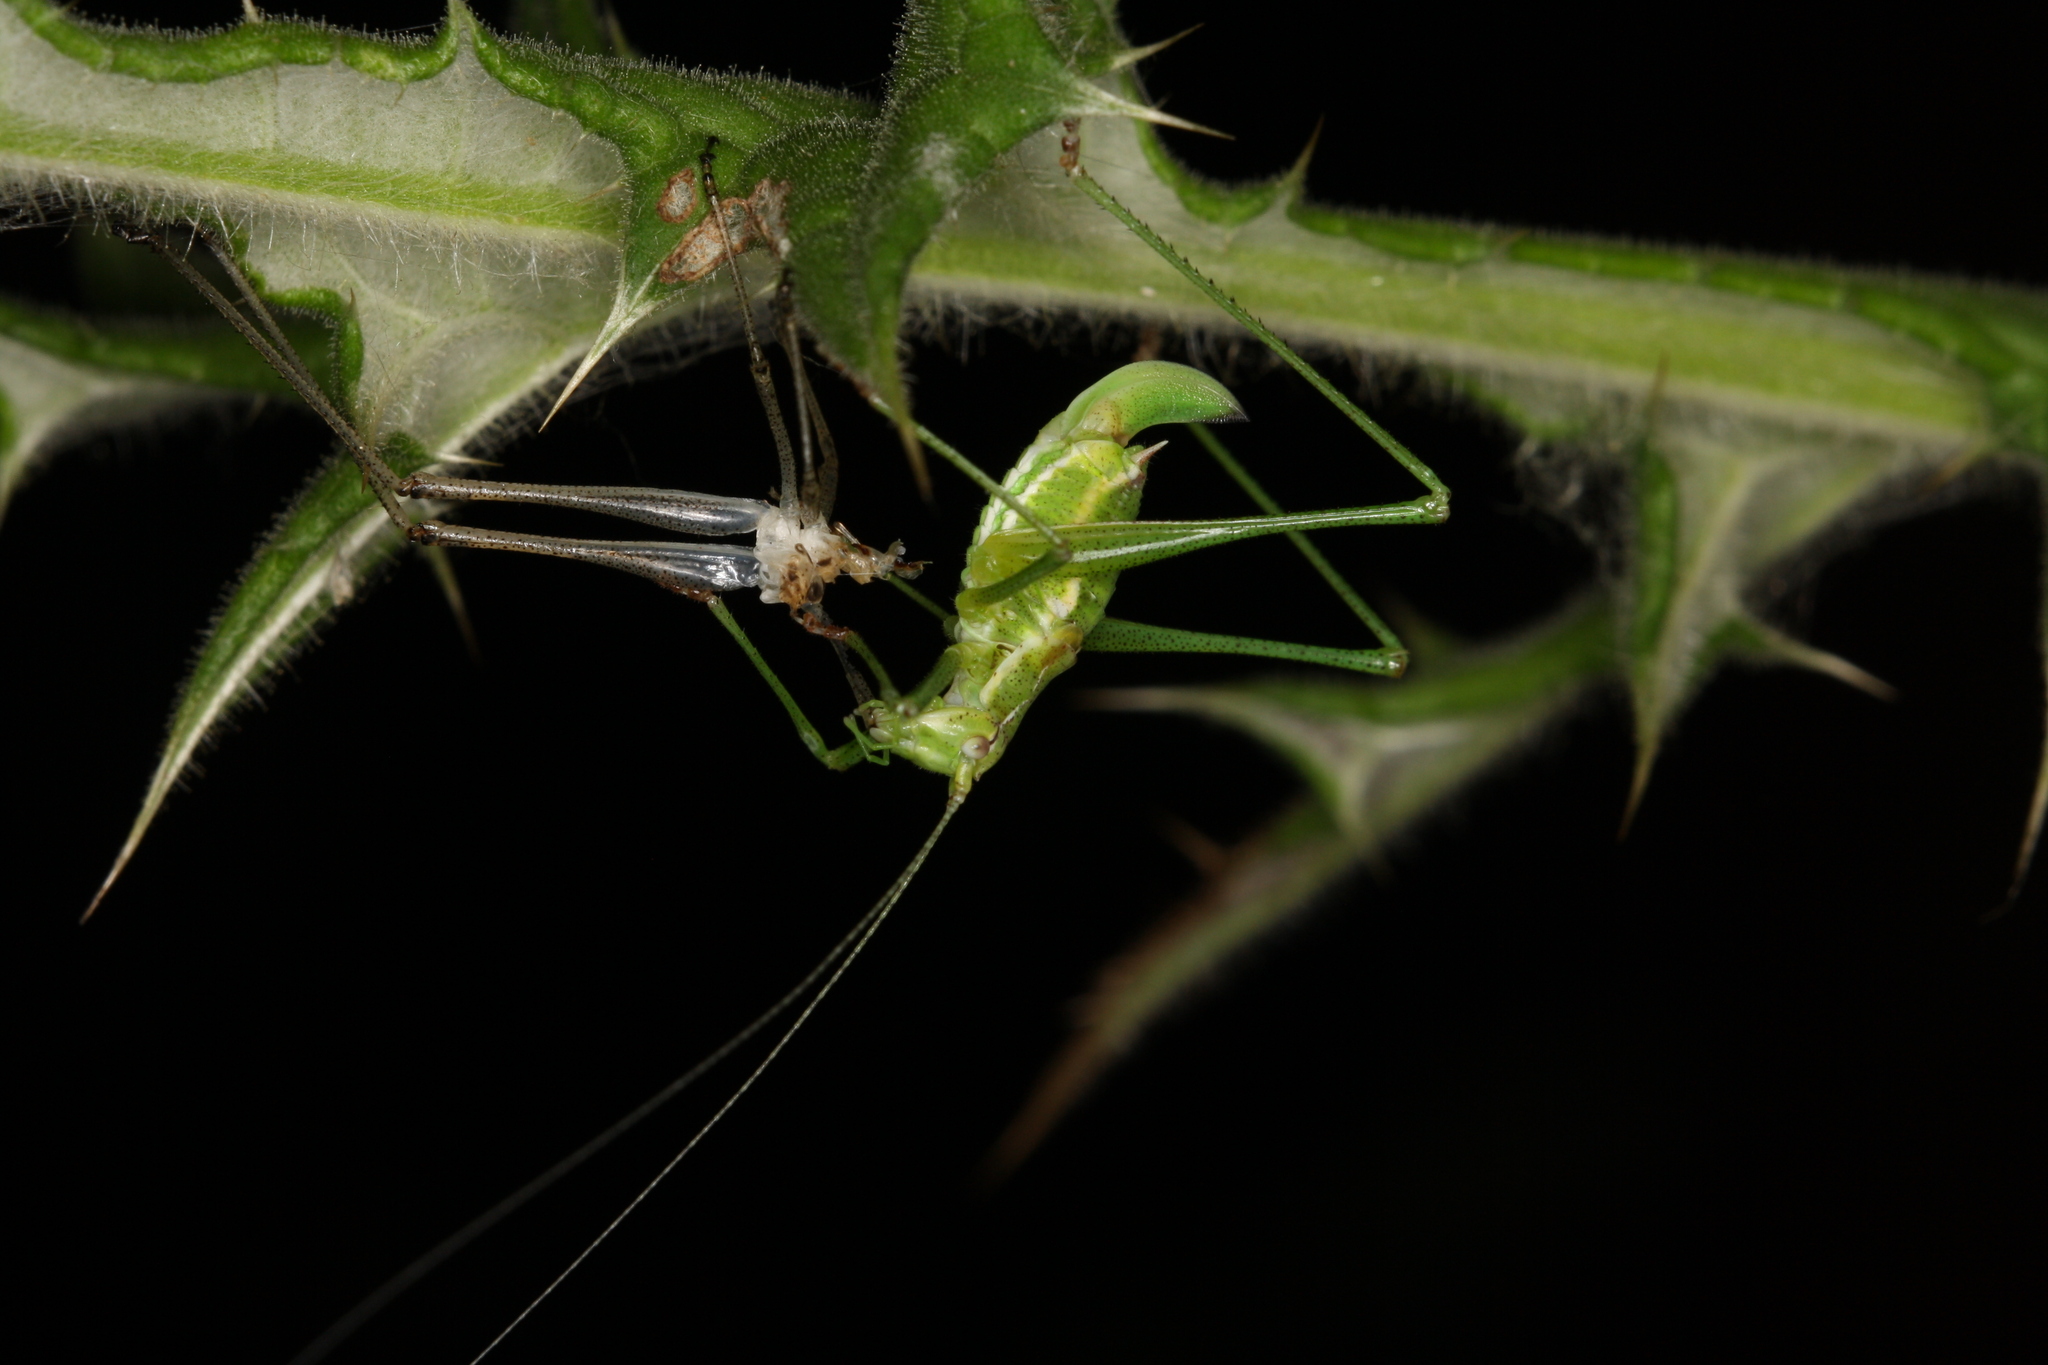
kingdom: Animalia
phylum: Arthropoda
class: Insecta
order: Orthoptera
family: Tettigoniidae
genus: Leptophyes
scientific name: Leptophyes albovittata
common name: Striped bush-cricket
